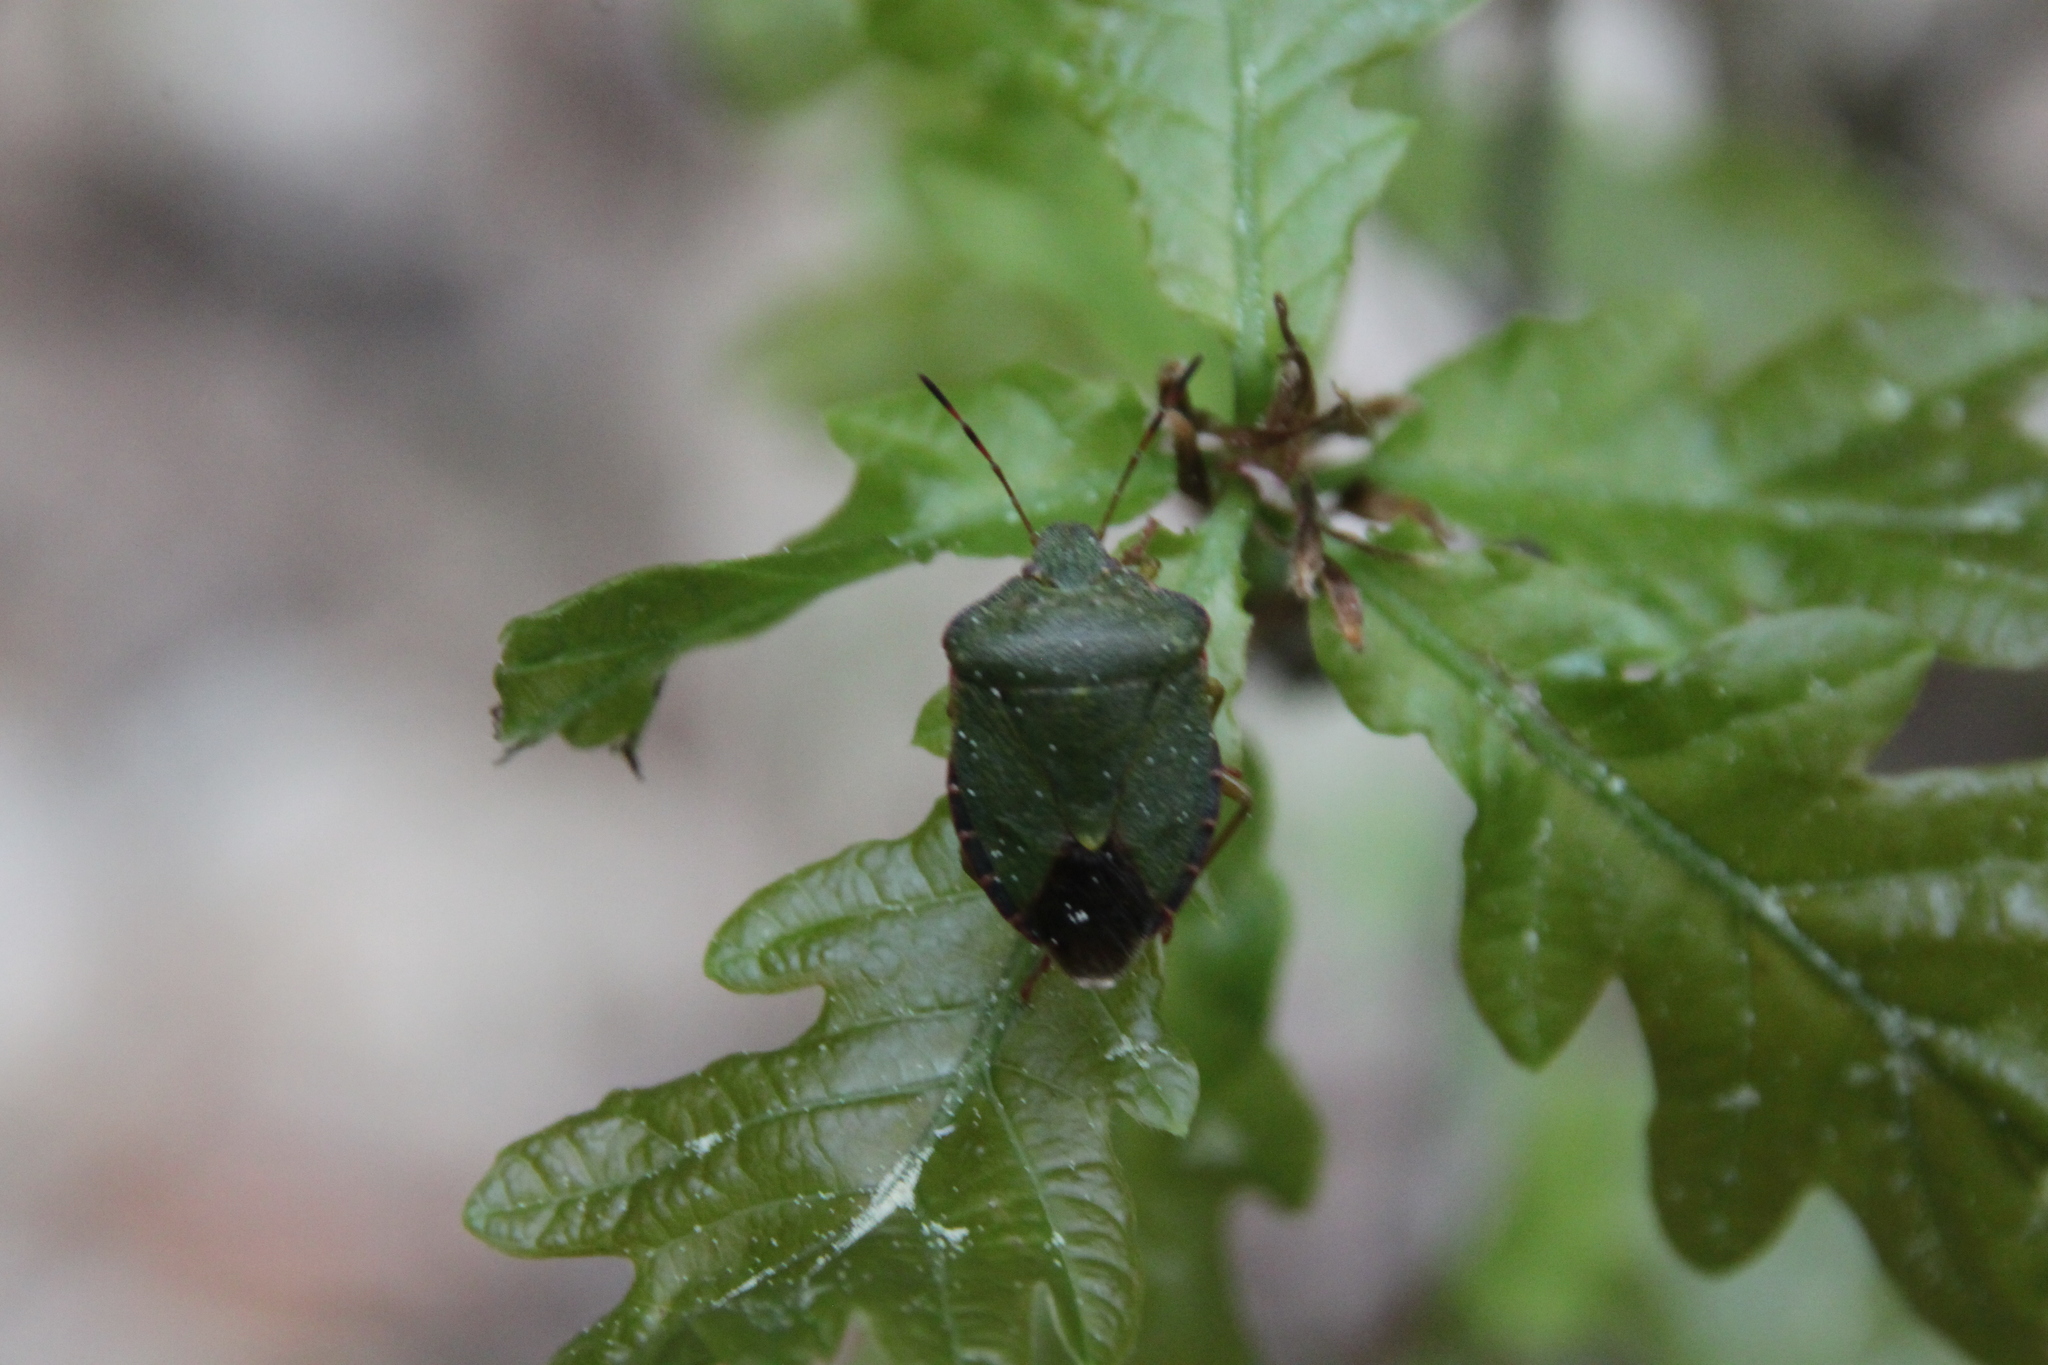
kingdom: Animalia
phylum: Arthropoda
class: Insecta
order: Hemiptera
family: Pentatomidae
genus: Palomena
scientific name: Palomena prasina
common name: Green shieldbug
